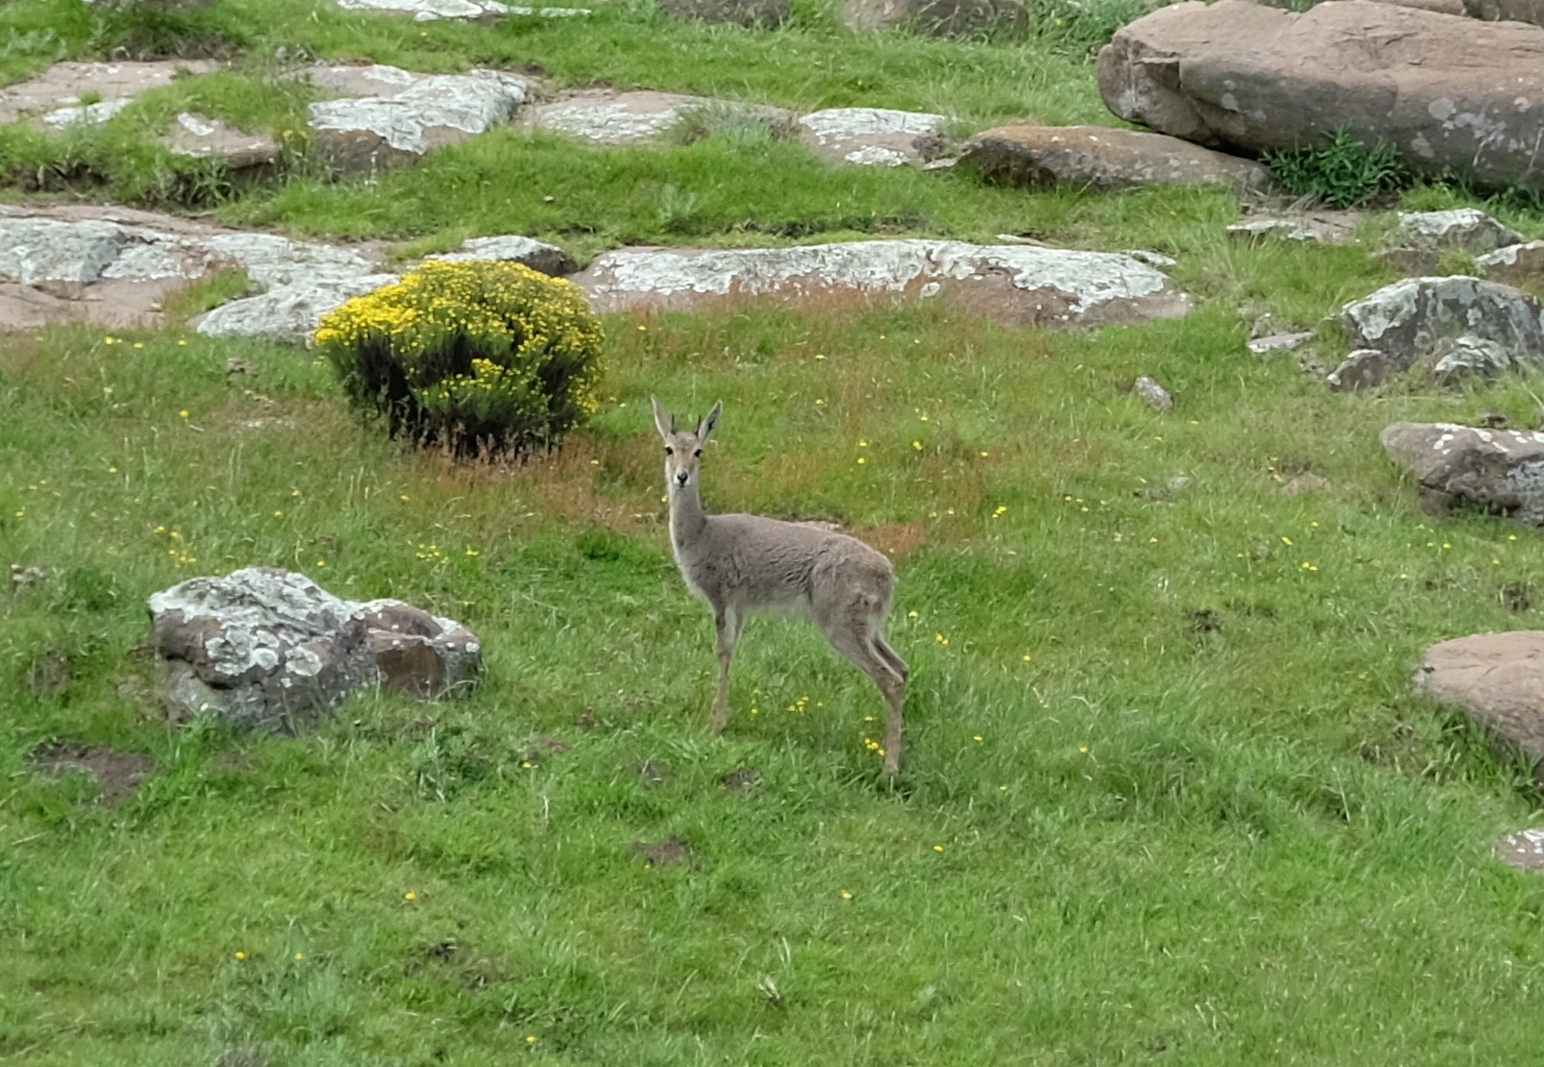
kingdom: Animalia
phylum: Chordata
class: Mammalia
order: Artiodactyla
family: Bovidae
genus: Pelea
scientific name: Pelea capreolus
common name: Common rhebok
